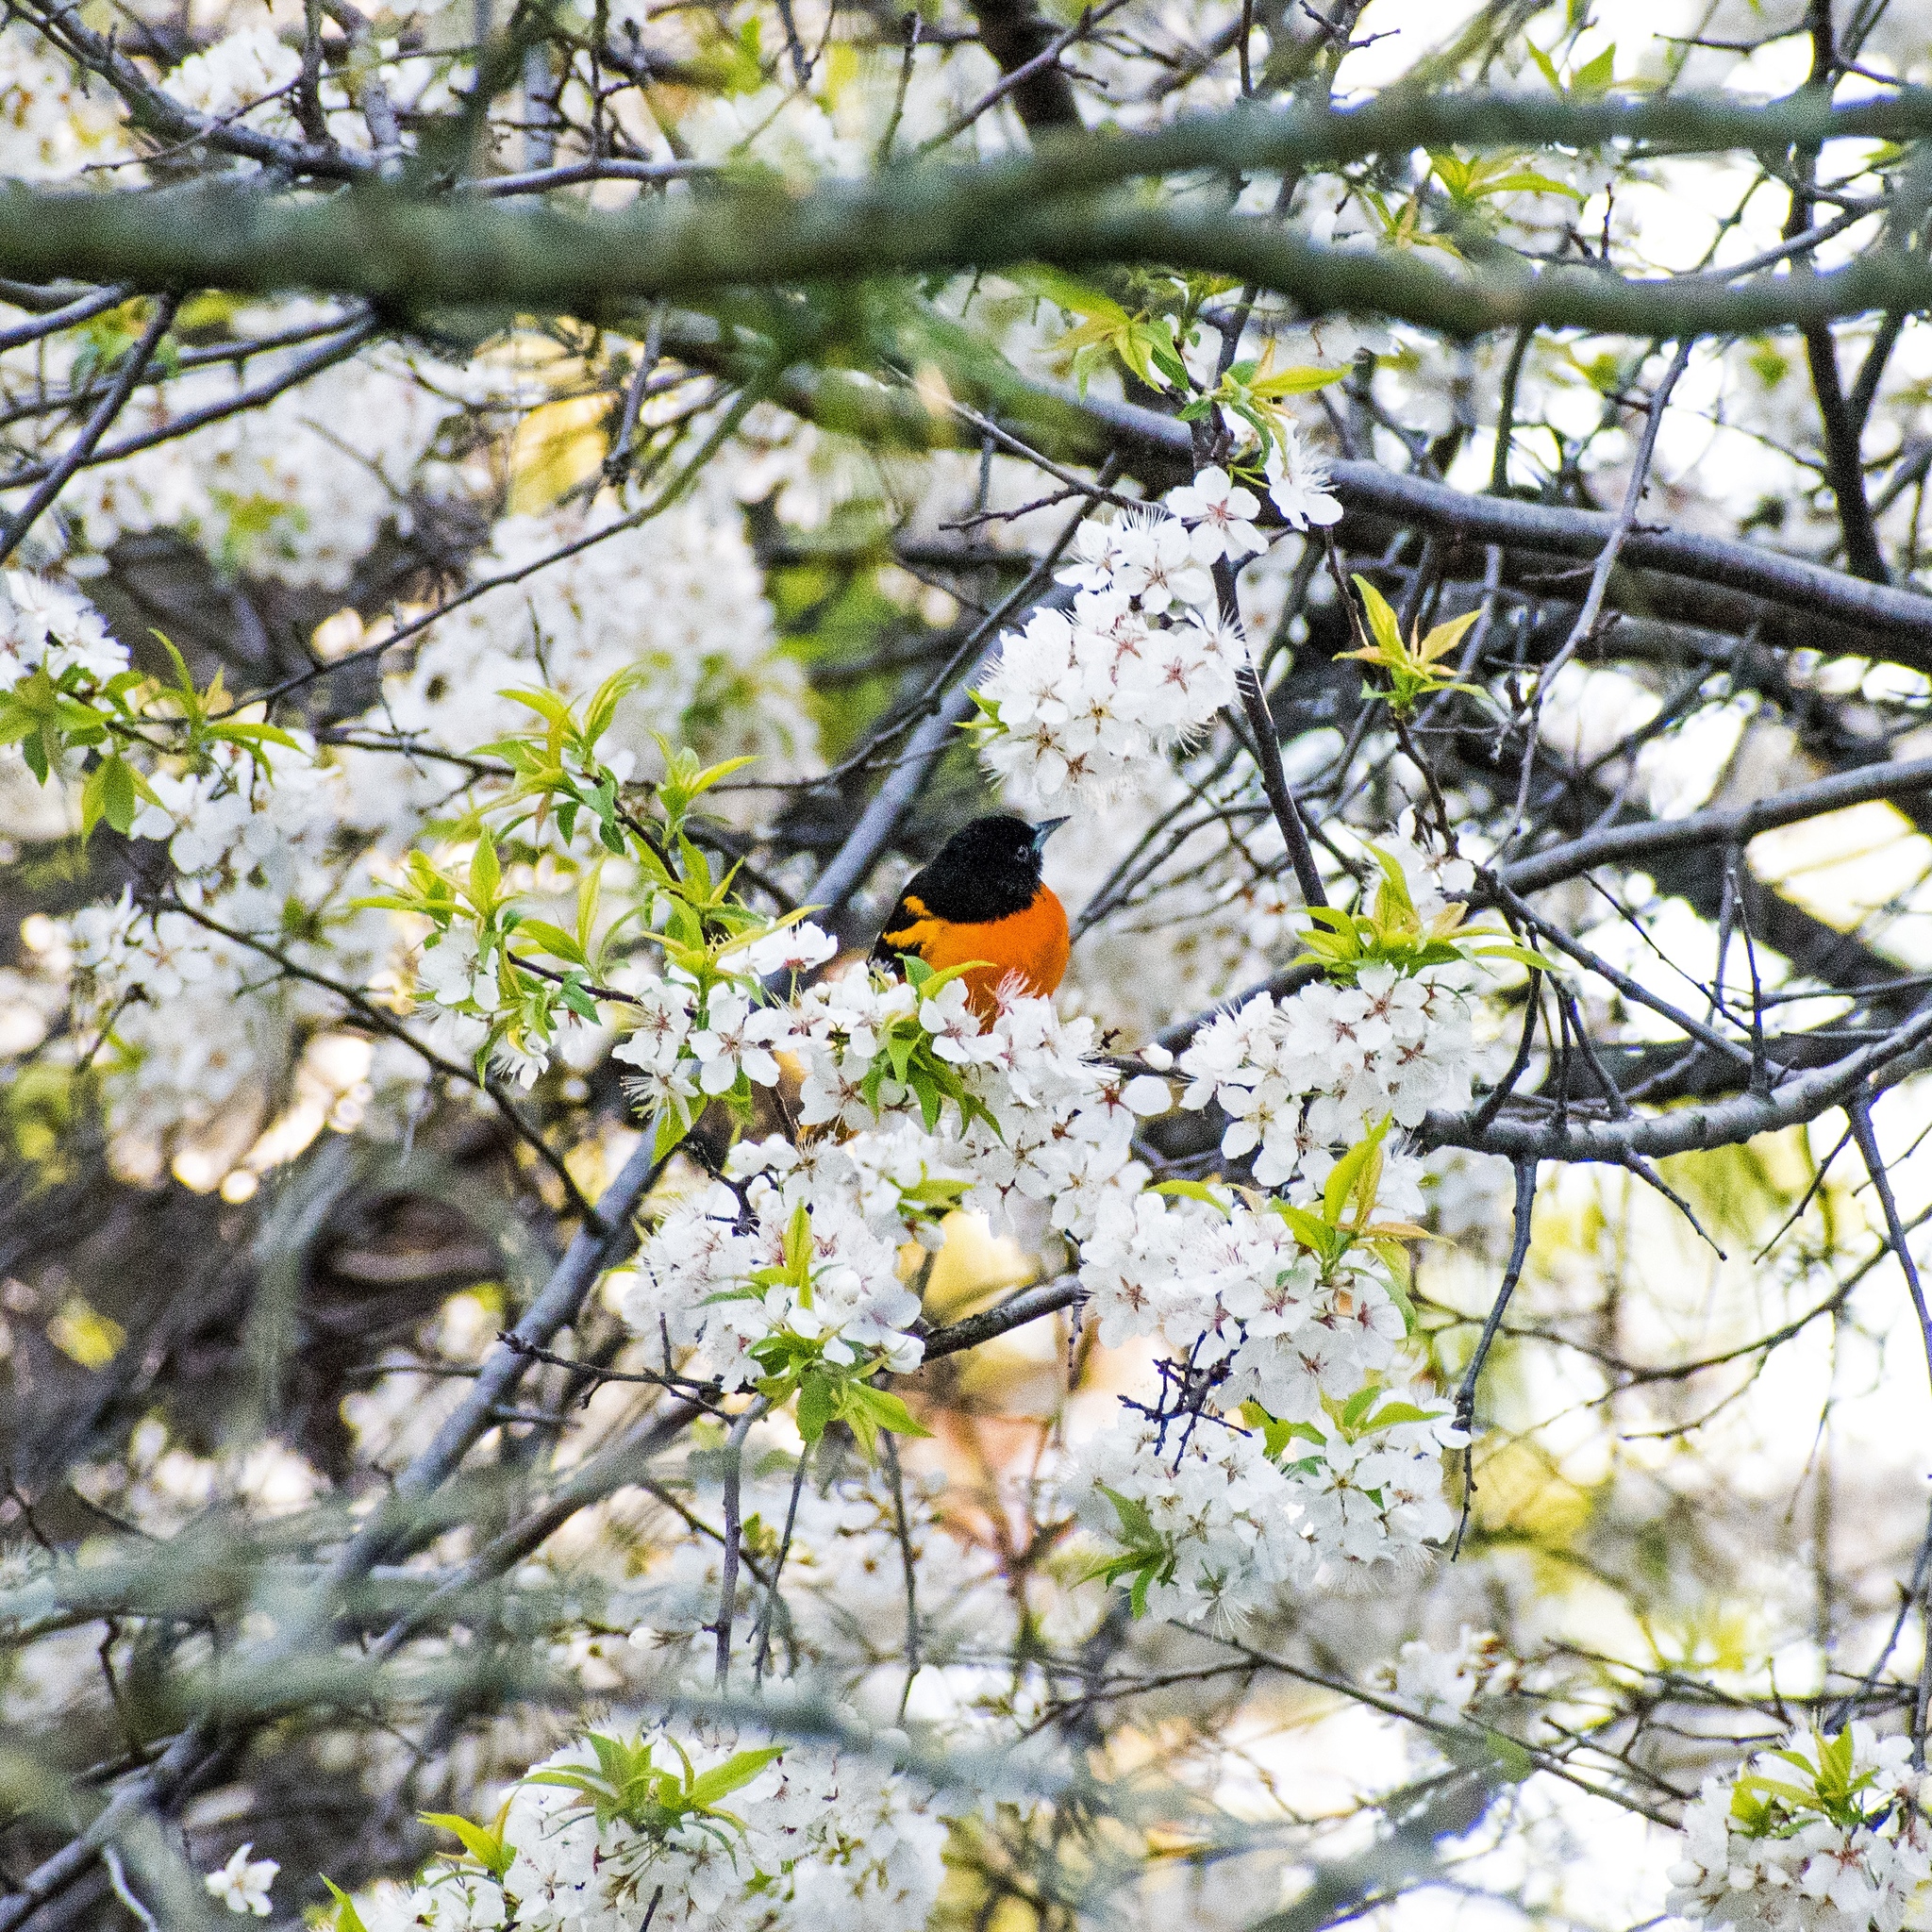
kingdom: Animalia
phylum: Chordata
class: Aves
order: Passeriformes
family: Icteridae
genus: Icterus
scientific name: Icterus galbula
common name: Baltimore oriole
